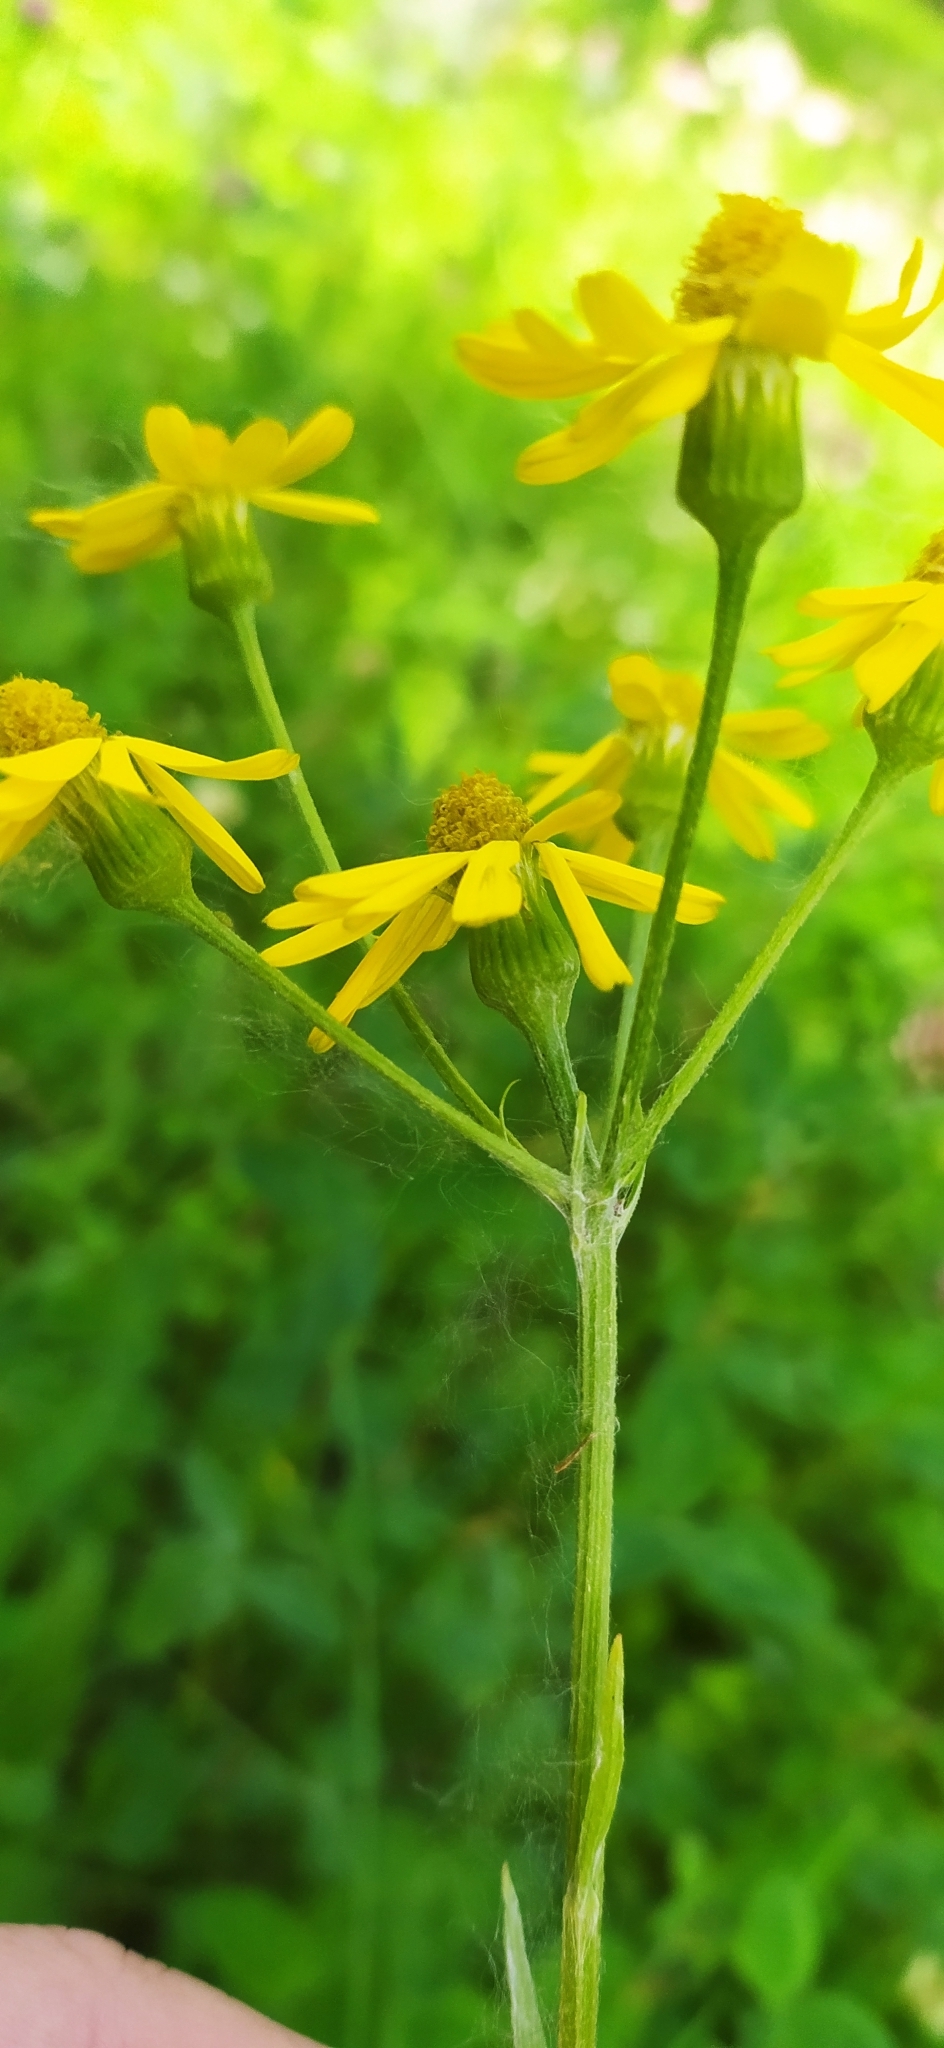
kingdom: Plantae
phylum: Tracheophyta
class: Magnoliopsida
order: Asterales
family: Asteraceae
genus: Tephroseris
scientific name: Tephroseris integrifolia
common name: Field fleawort
